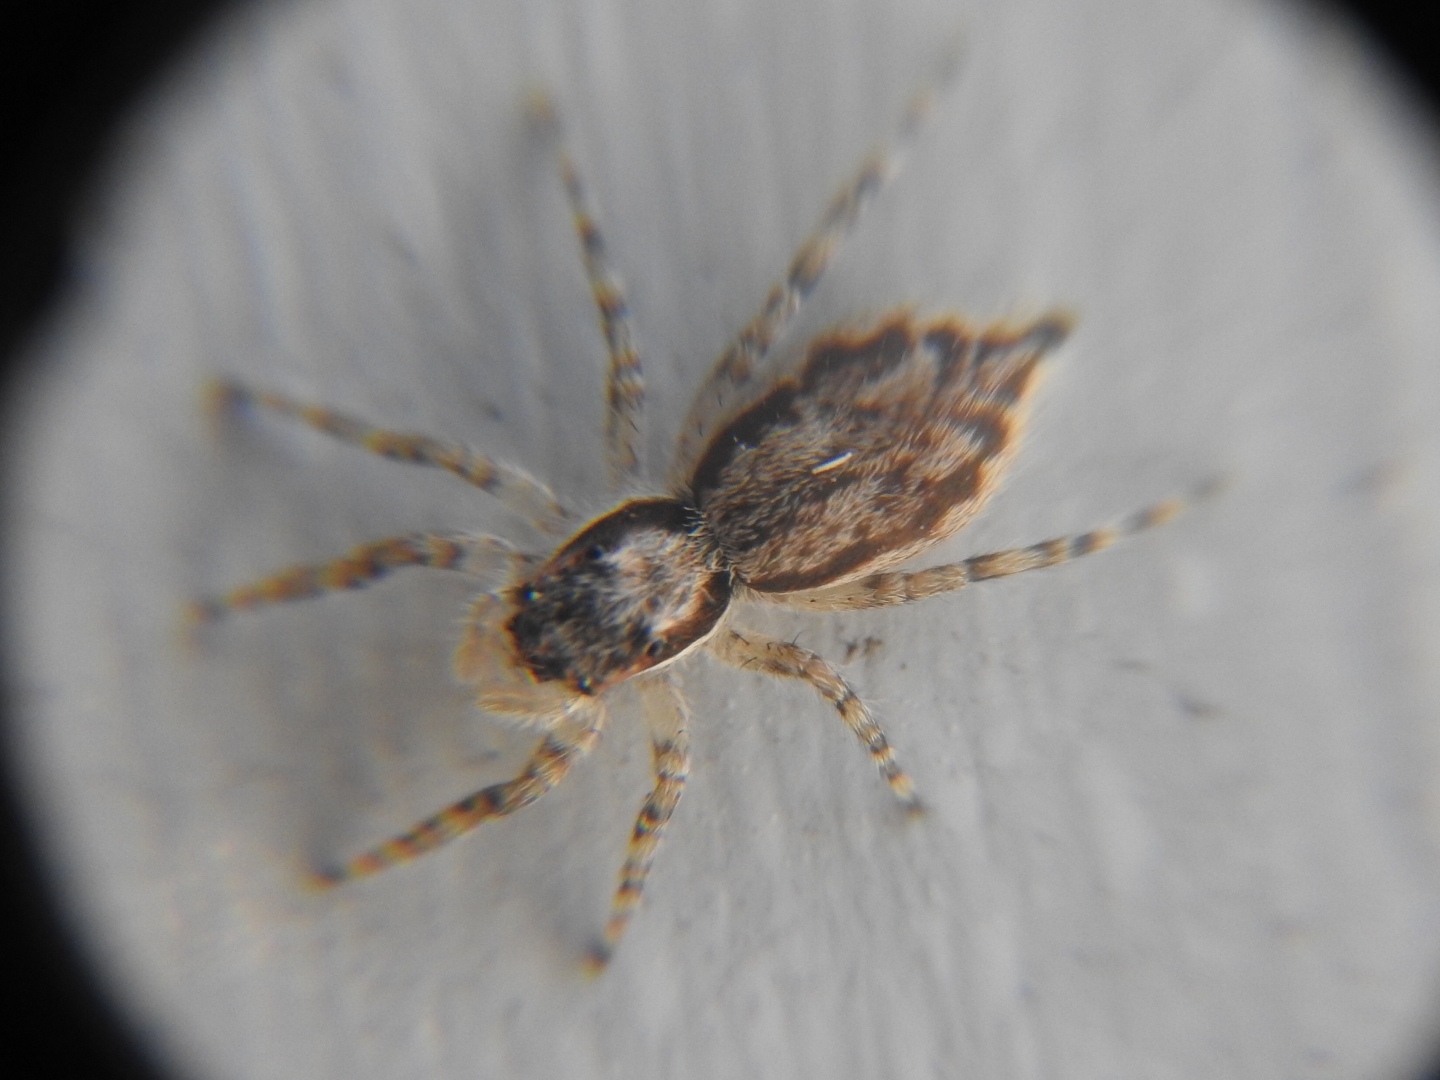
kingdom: Animalia
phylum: Arthropoda
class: Arachnida
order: Araneae
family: Salticidae
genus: Menemerus
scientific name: Menemerus bivittatus
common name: Gray wall jumper
